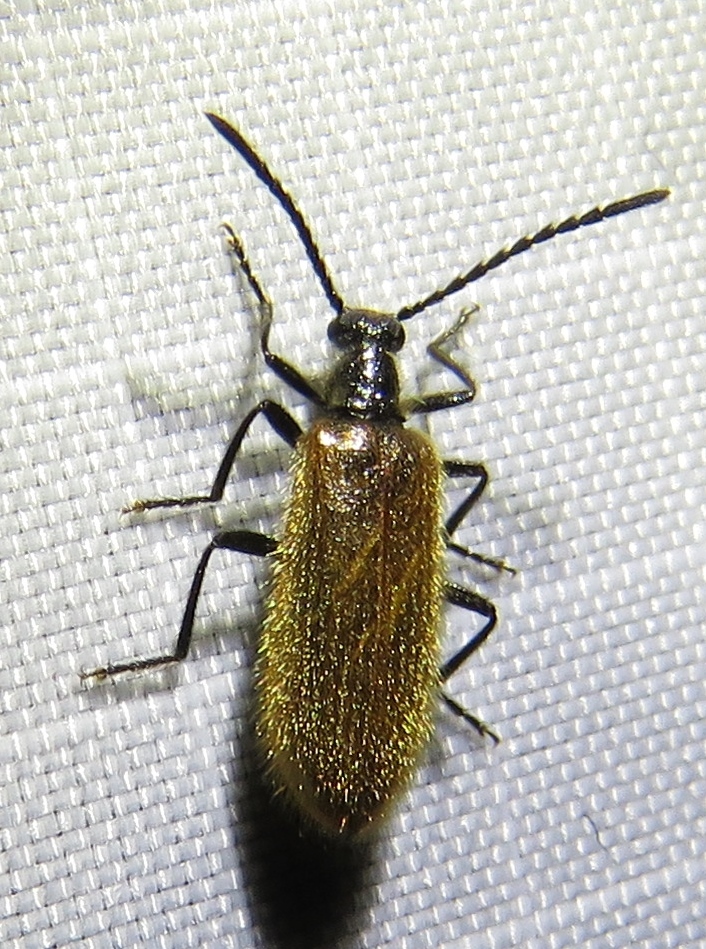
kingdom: Animalia
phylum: Arthropoda
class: Insecta
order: Coleoptera
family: Tenebrionidae
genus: Lagria
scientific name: Lagria hirta
